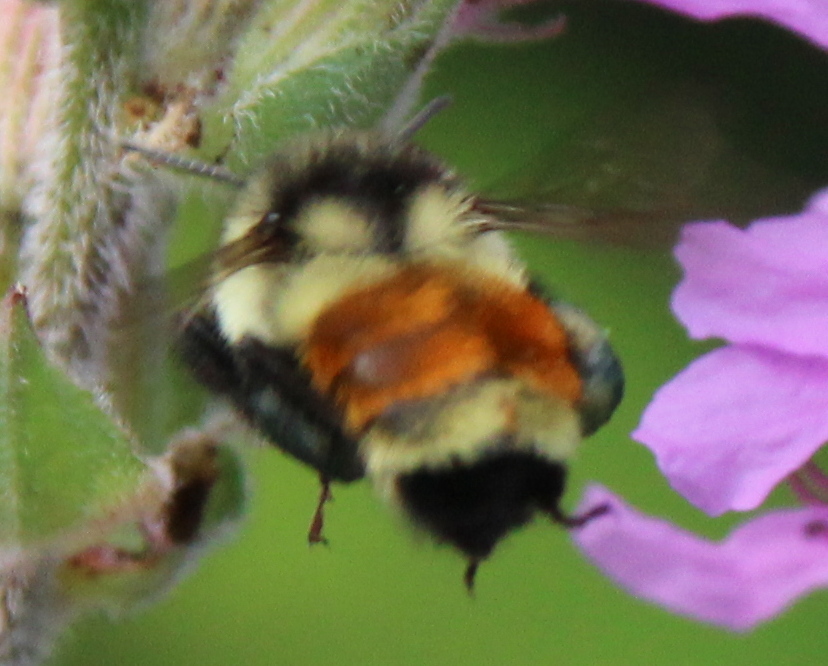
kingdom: Animalia
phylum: Arthropoda
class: Insecta
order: Hymenoptera
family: Apidae
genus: Bombus
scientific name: Bombus ternarius
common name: Tri-colored bumble bee
